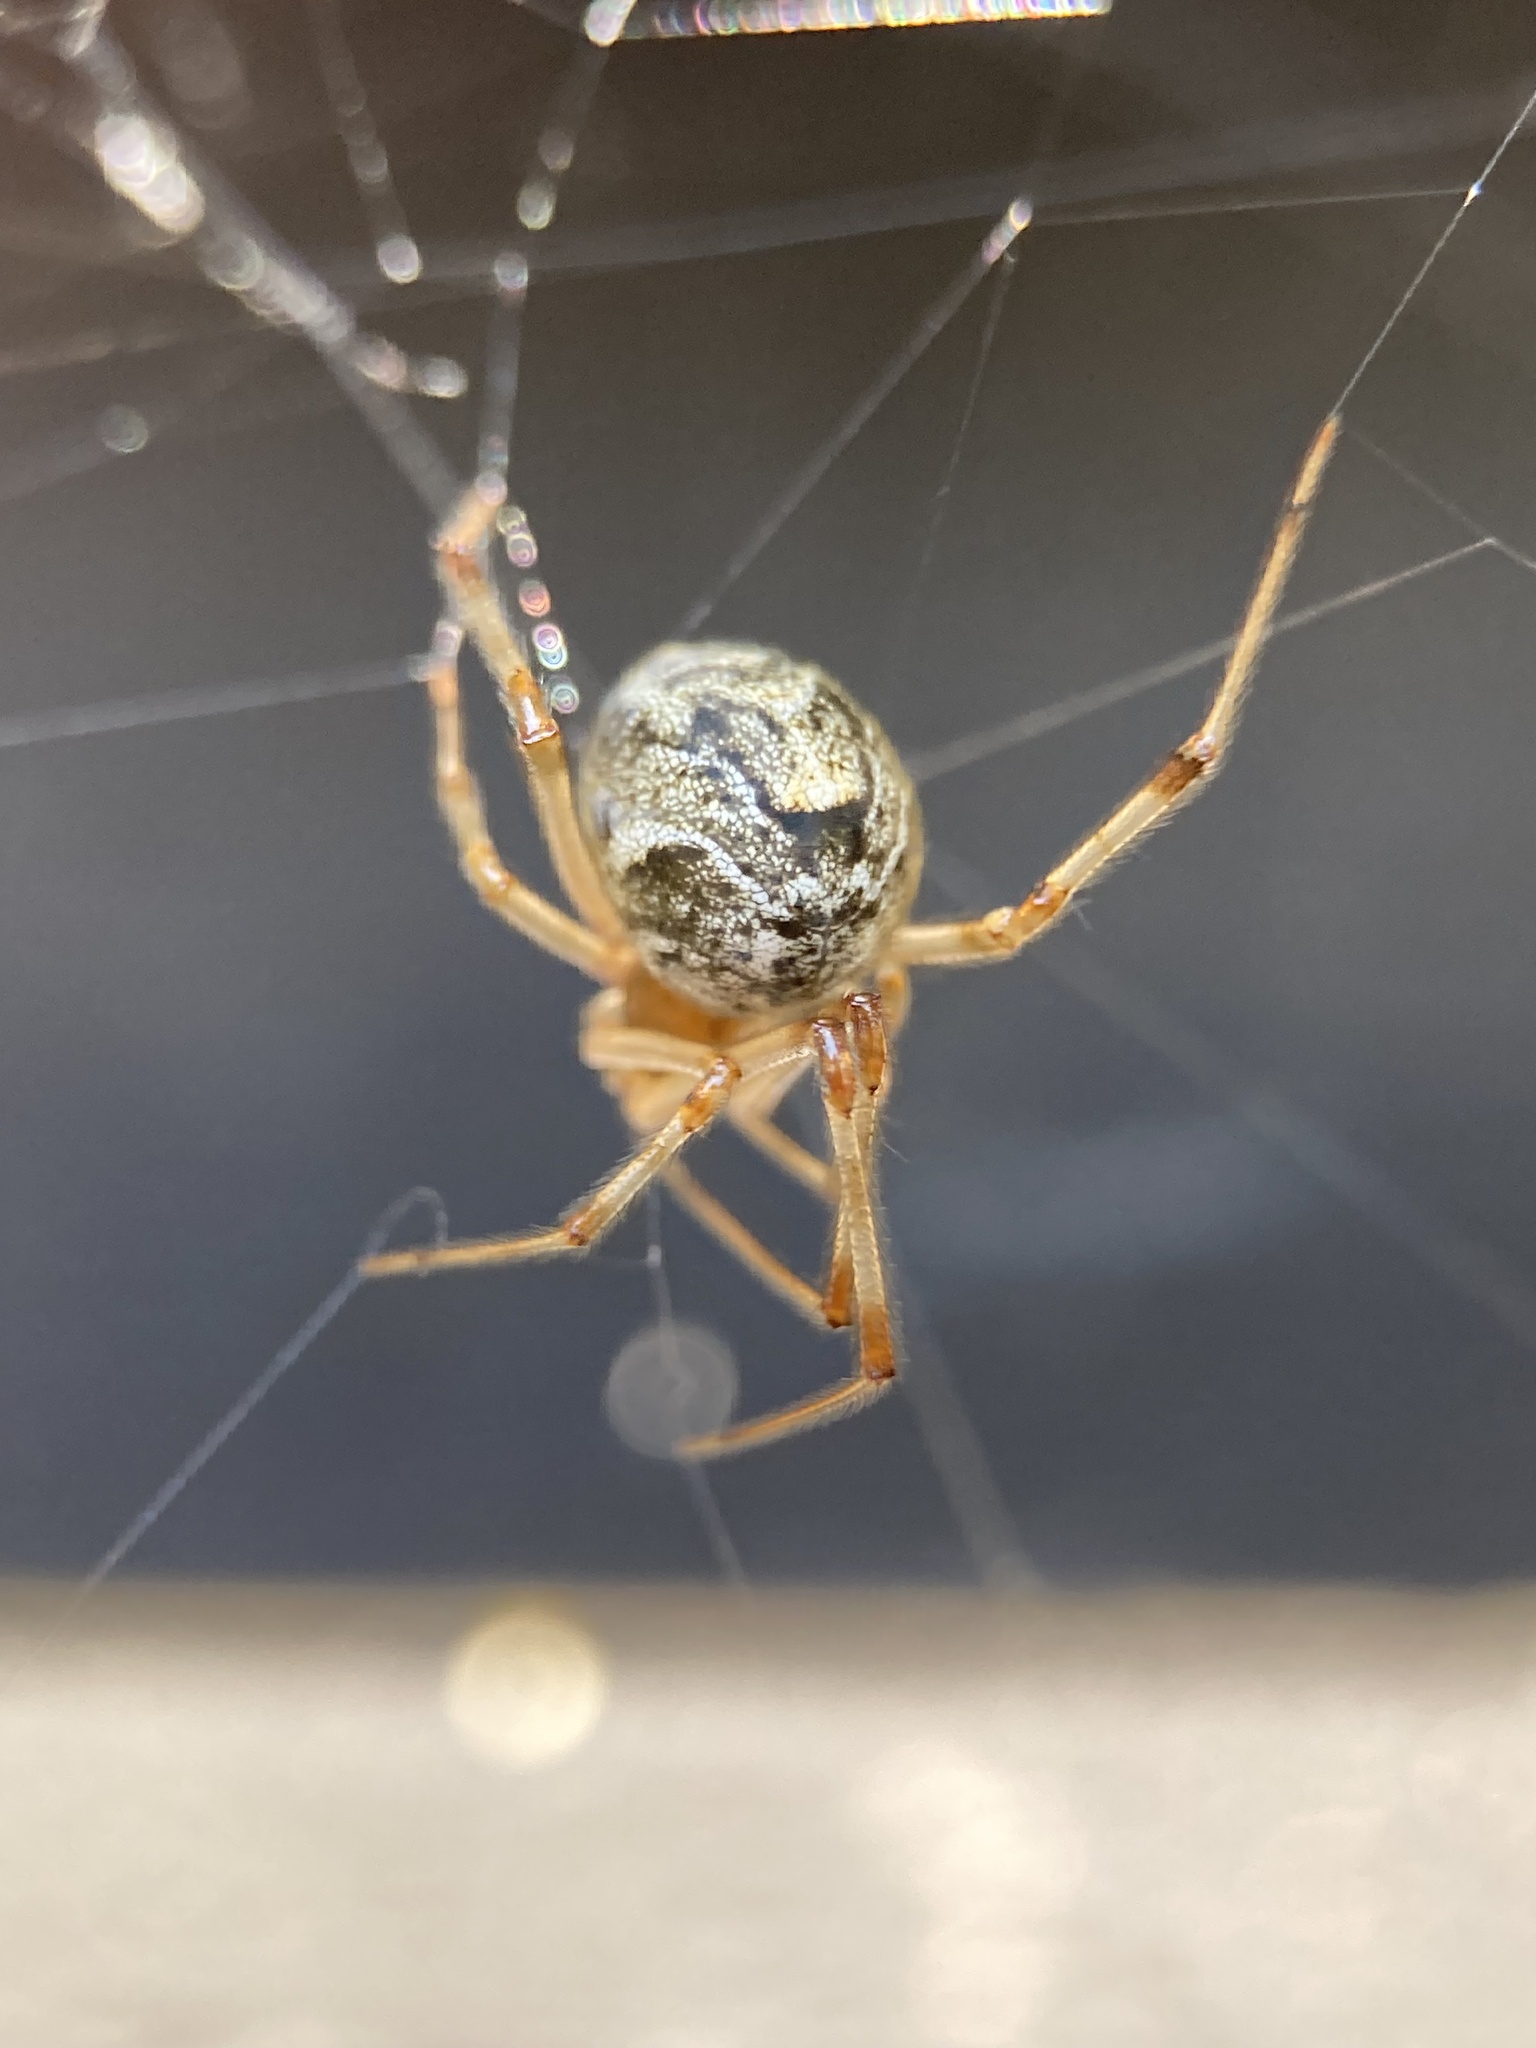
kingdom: Animalia
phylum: Arthropoda
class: Arachnida
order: Araneae
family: Theridiidae
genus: Parasteatoda
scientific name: Parasteatoda tepidariorum
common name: Common house spider
